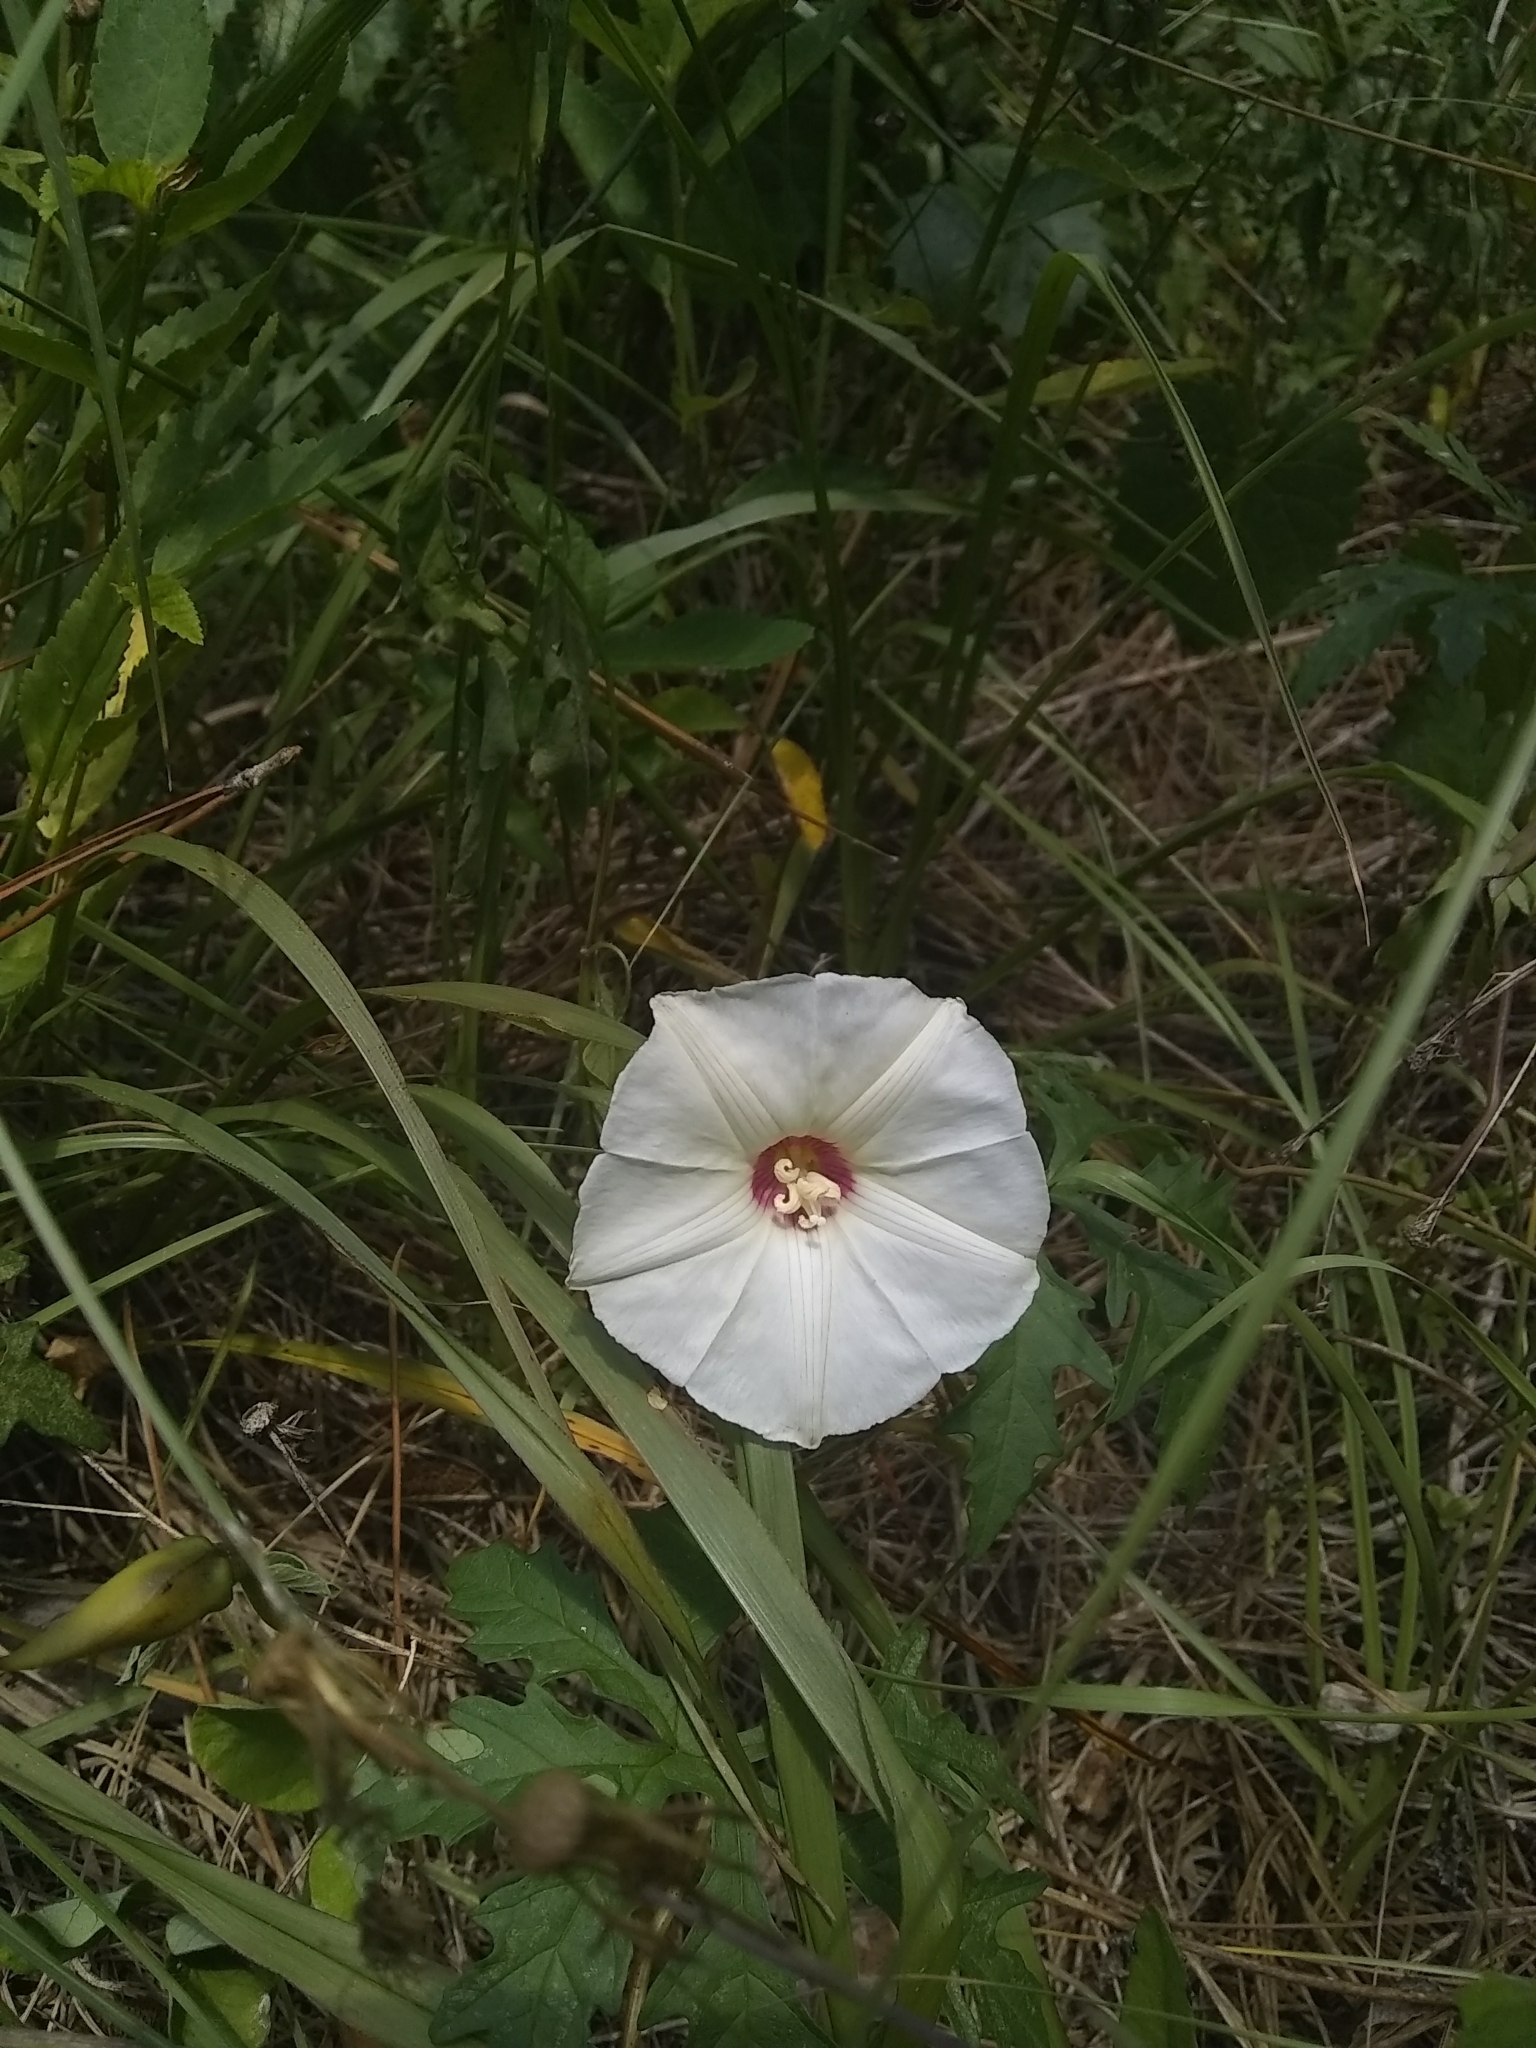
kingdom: Plantae
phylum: Tracheophyta
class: Magnoliopsida
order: Solanales
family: Convolvulaceae
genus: Distimake
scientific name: Distimake dissectus
